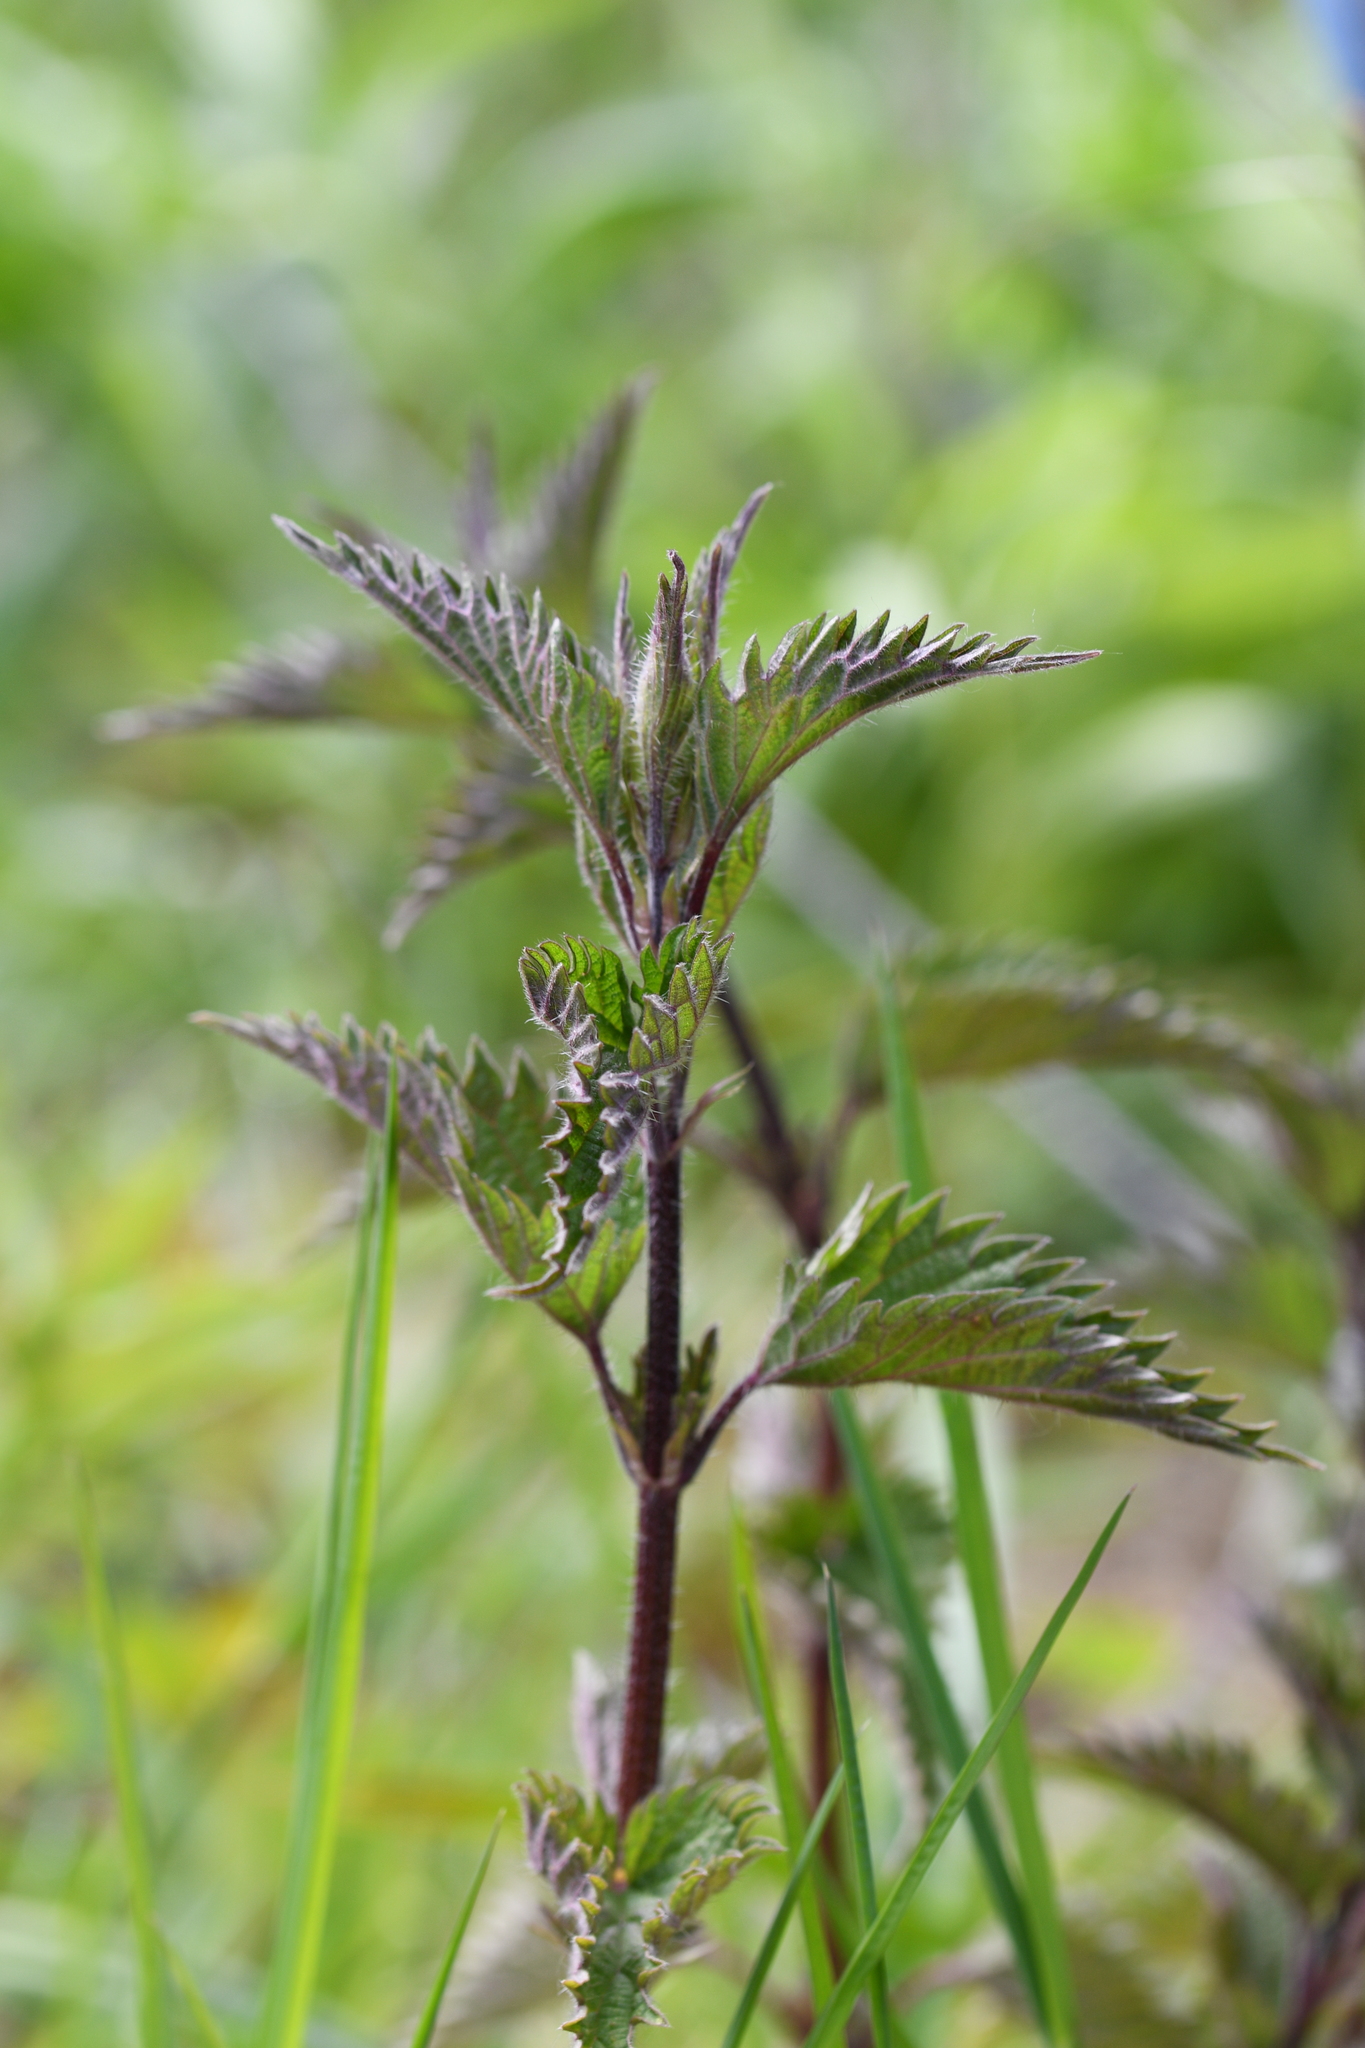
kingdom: Plantae
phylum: Tracheophyta
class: Magnoliopsida
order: Rosales
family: Urticaceae
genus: Urtica
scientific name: Urtica dioica
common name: Common nettle
